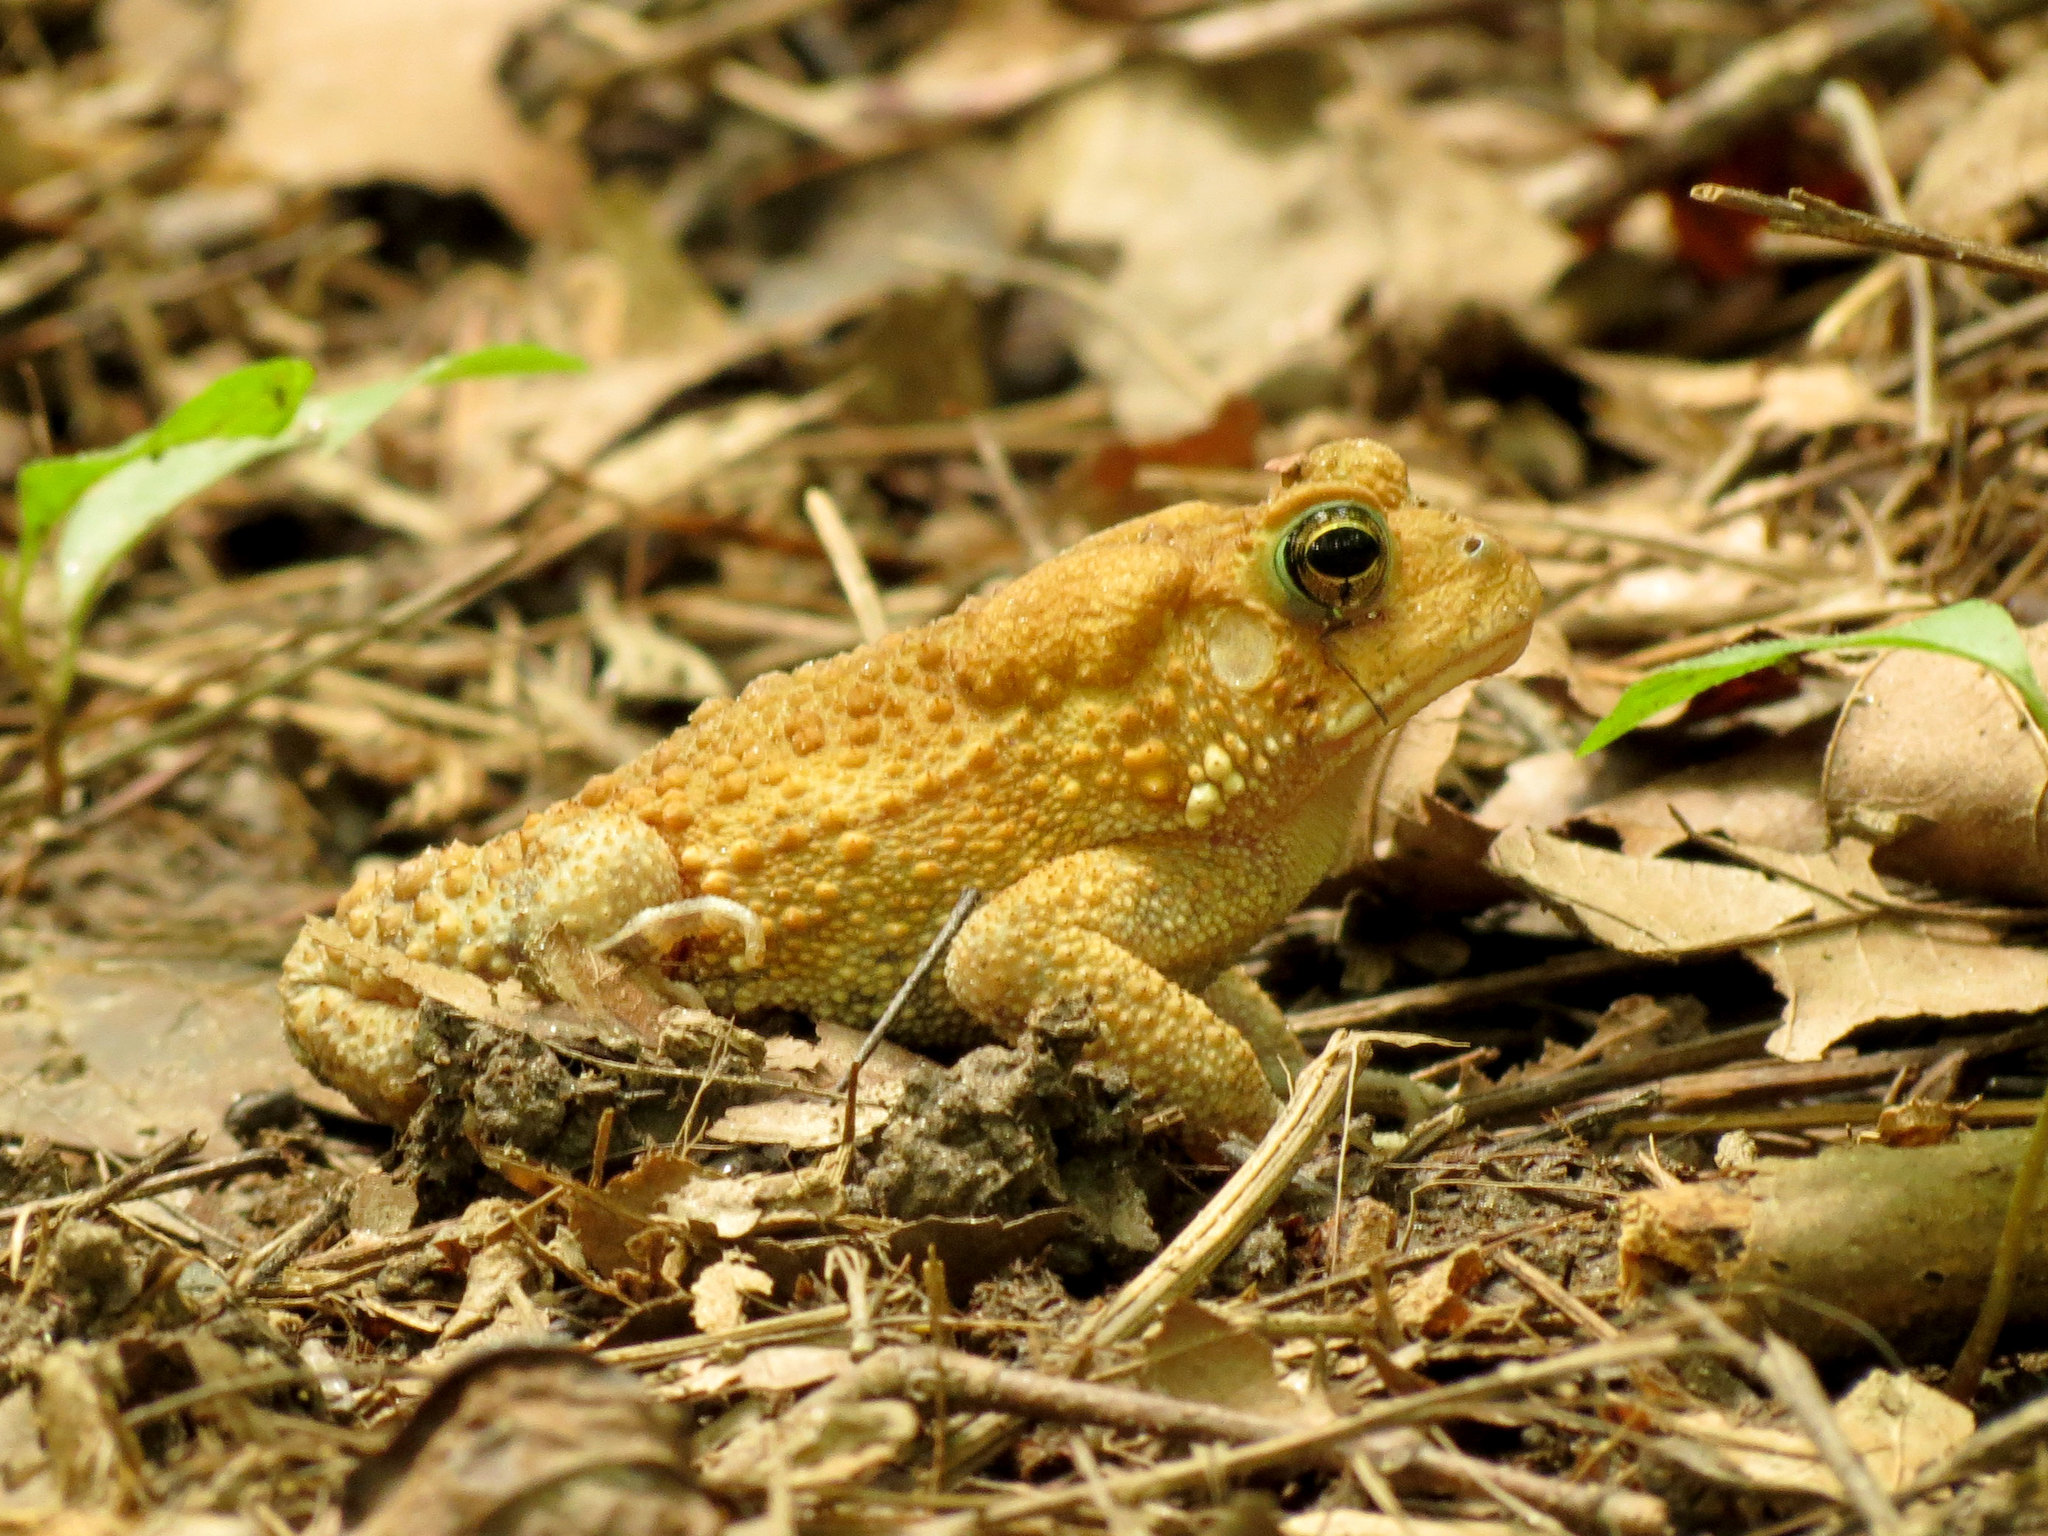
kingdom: Animalia
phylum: Chordata
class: Amphibia
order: Anura
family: Bufonidae
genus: Anaxyrus
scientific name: Anaxyrus americanus
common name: American toad
